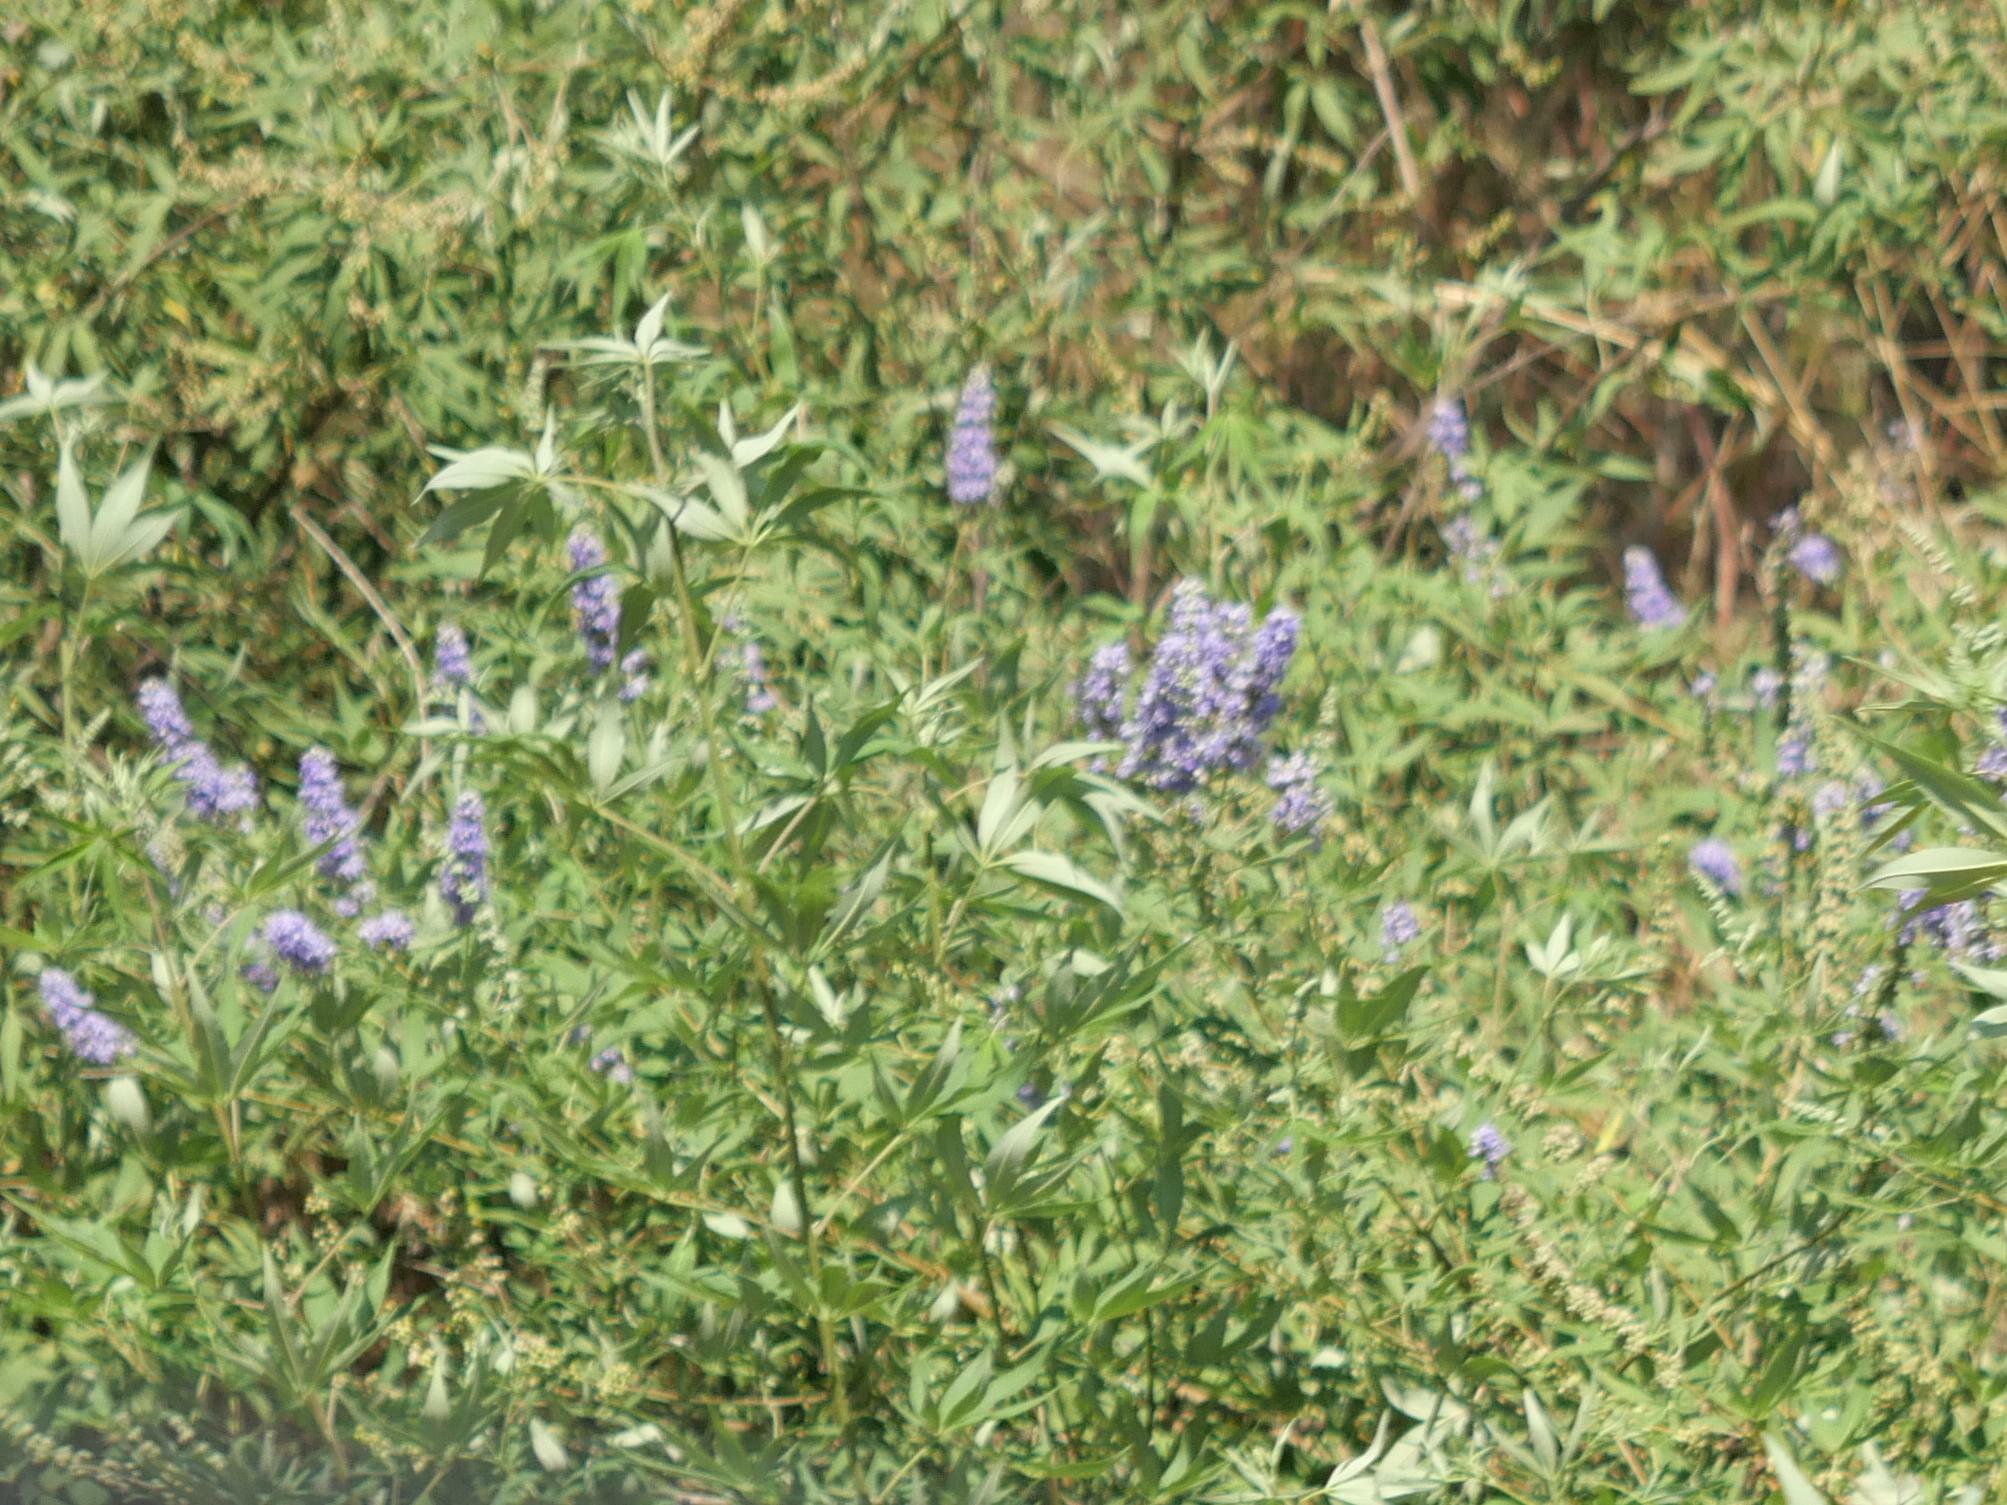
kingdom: Plantae
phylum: Tracheophyta
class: Magnoliopsida
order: Lamiales
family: Lamiaceae
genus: Vitex
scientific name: Vitex agnus-castus
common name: Chasteberry
